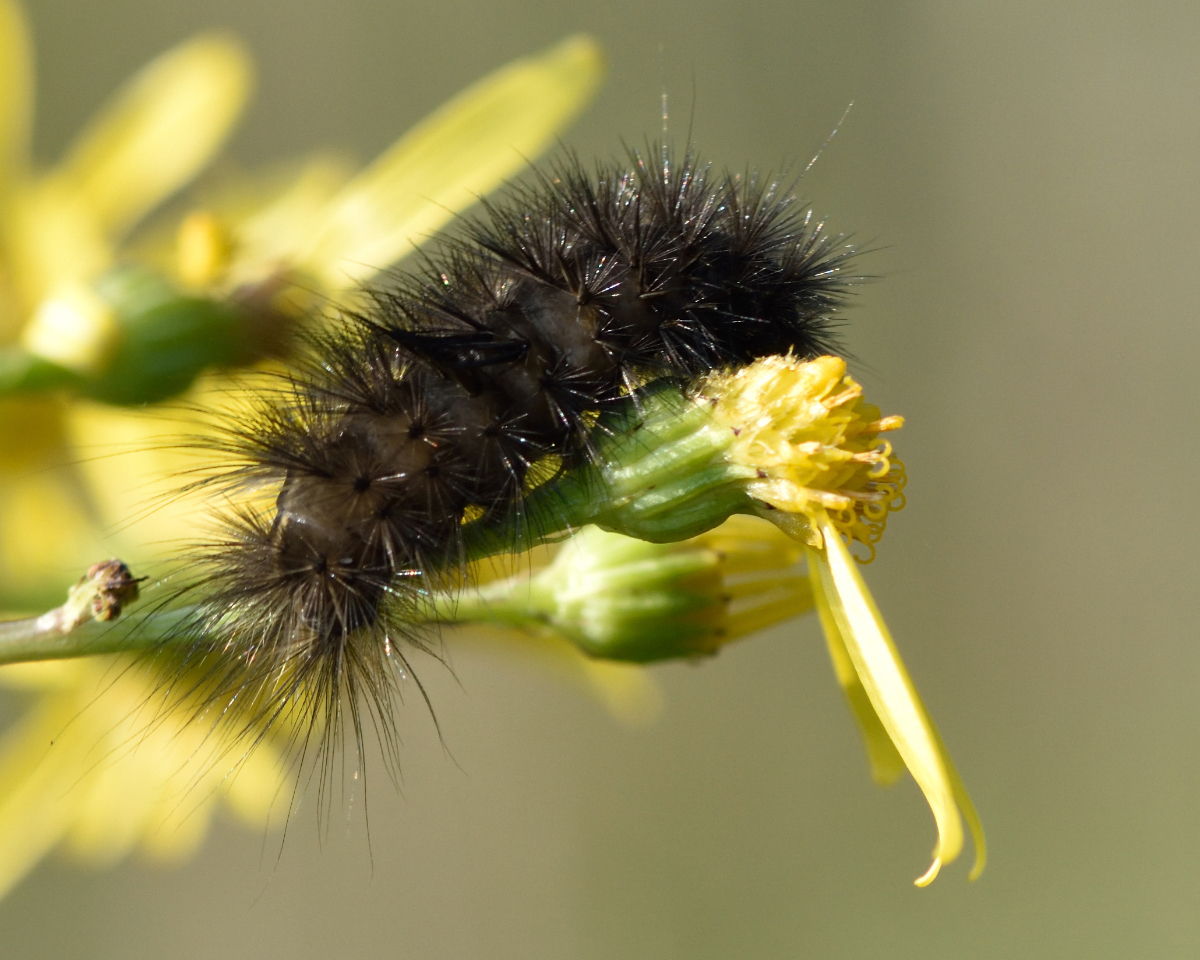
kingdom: Animalia
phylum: Arthropoda
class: Insecta
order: Lepidoptera
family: Erebidae
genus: Phragmatobia
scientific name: Phragmatobia fuliginosa
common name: Ruby tiger
